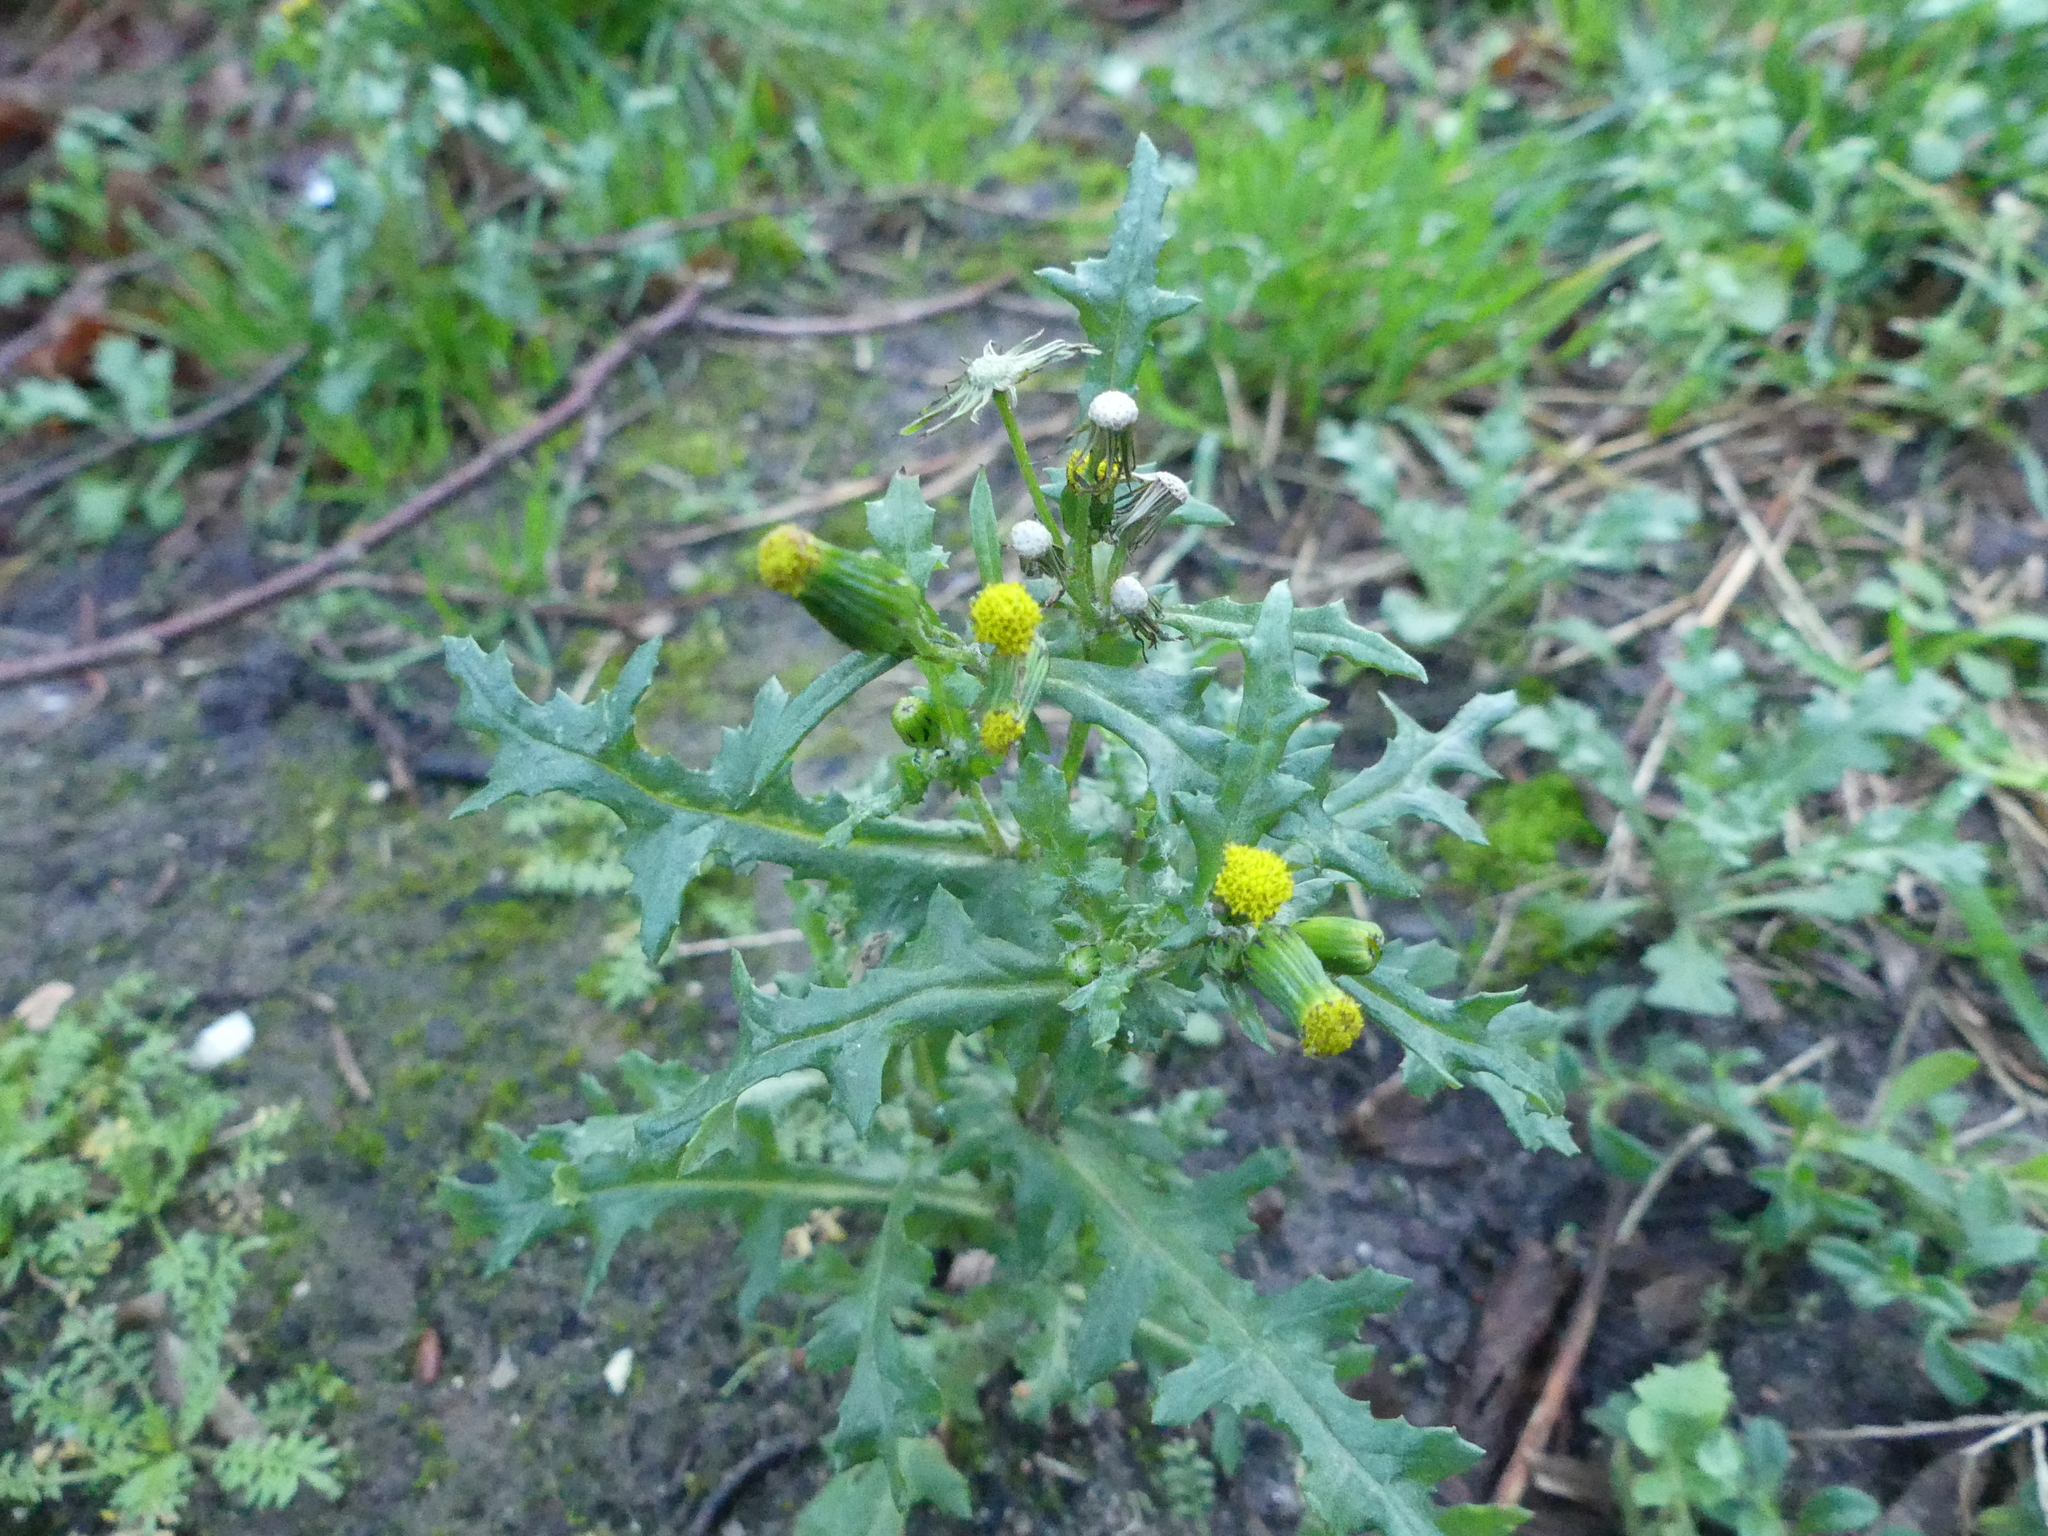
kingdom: Plantae
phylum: Tracheophyta
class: Magnoliopsida
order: Asterales
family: Asteraceae
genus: Senecio
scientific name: Senecio vulgaris
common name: Old-man-in-the-spring
